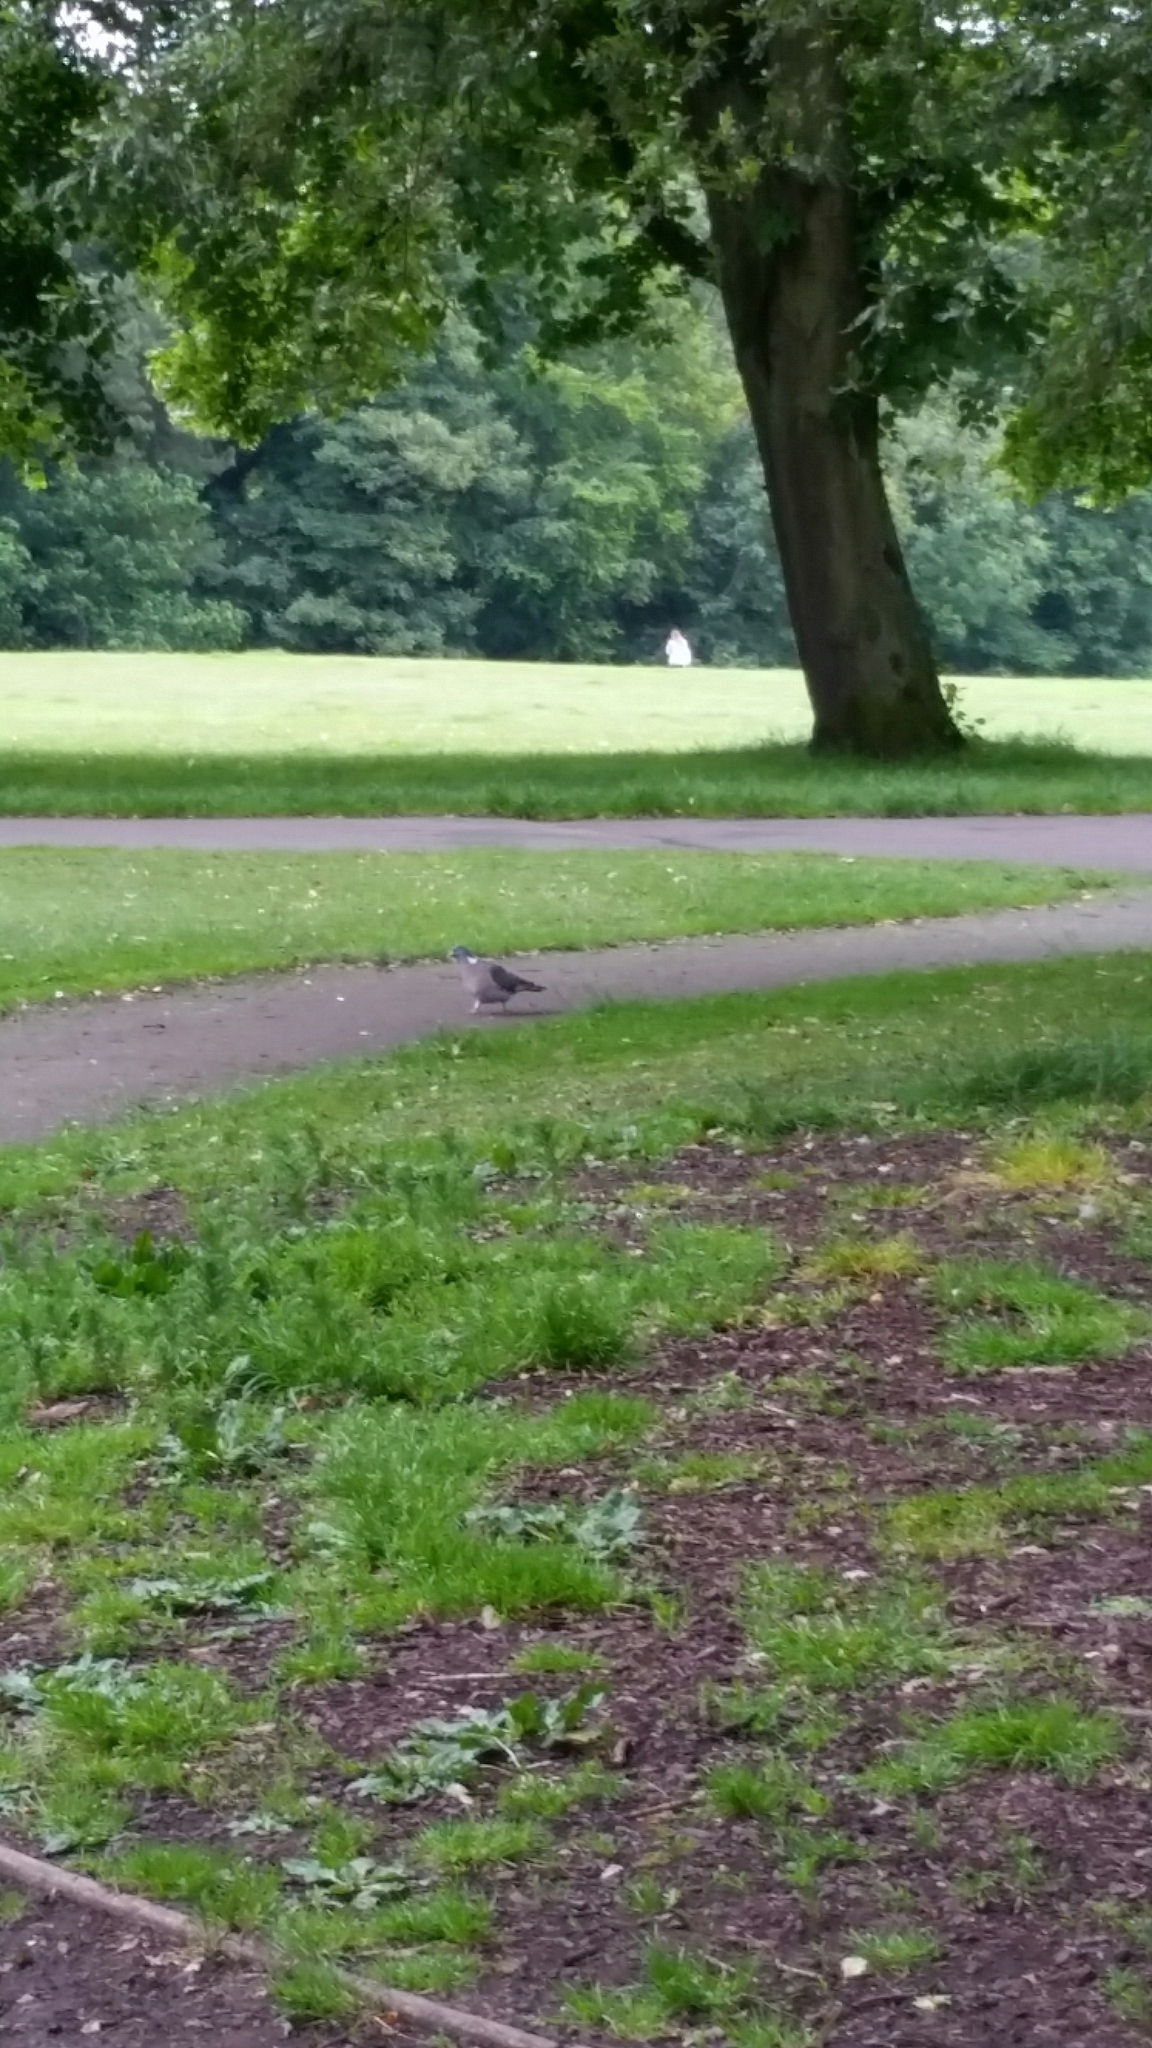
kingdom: Animalia
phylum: Chordata
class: Aves
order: Columbiformes
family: Columbidae
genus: Columba
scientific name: Columba palumbus
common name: Common wood pigeon
